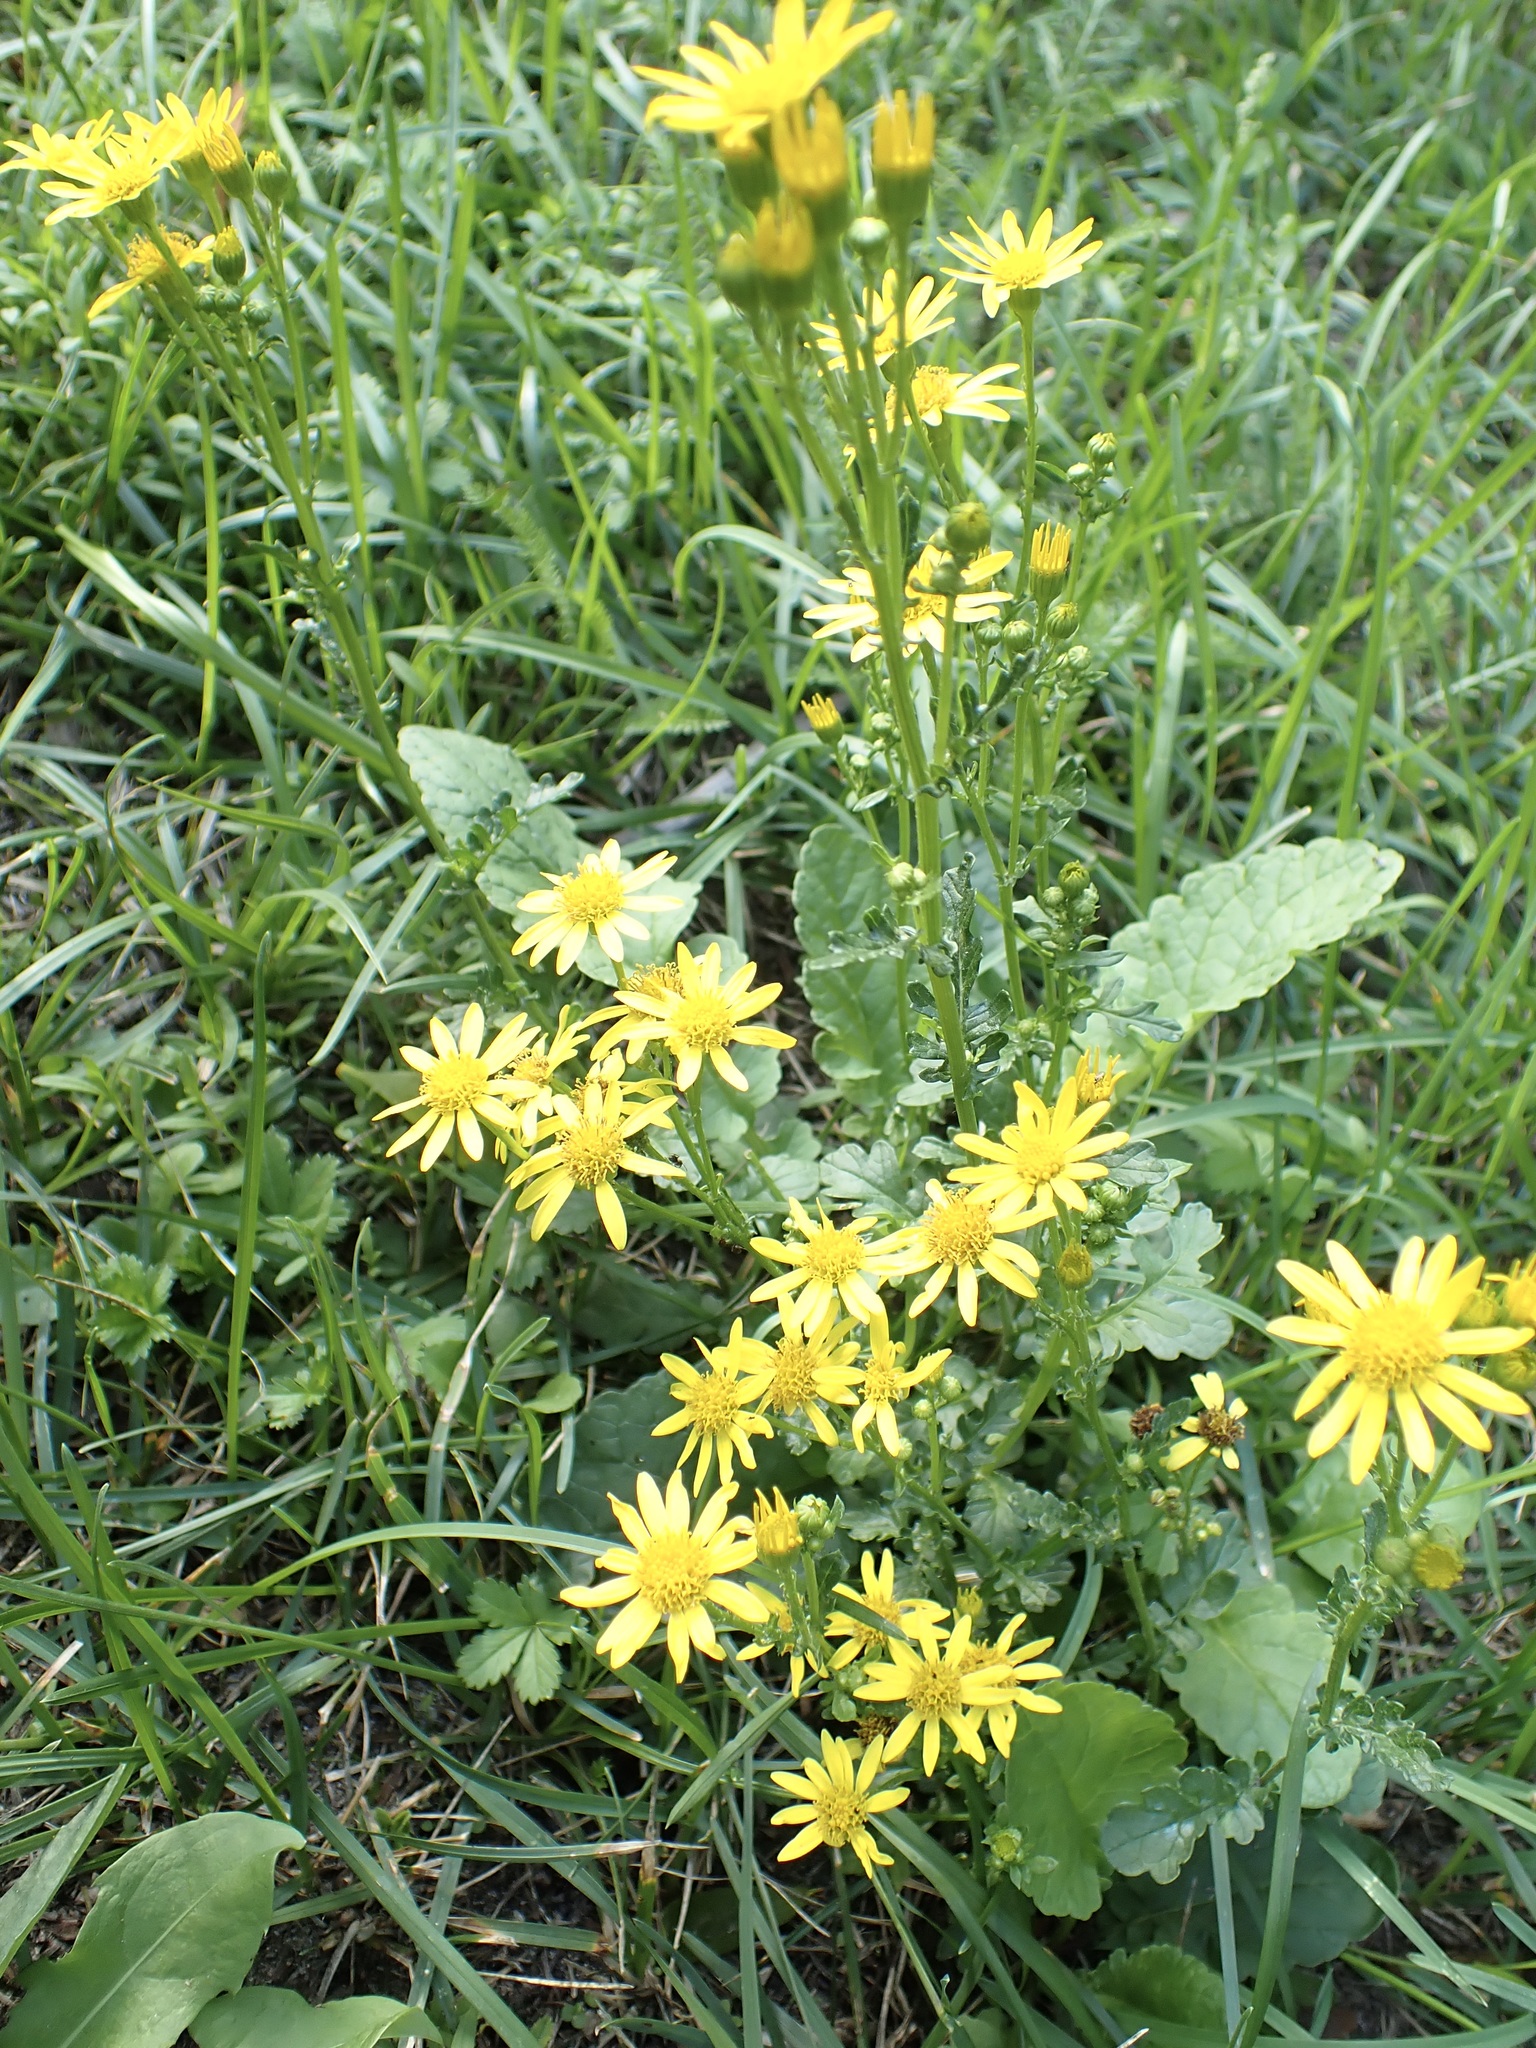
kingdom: Plantae
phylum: Tracheophyta
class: Magnoliopsida
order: Asterales
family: Asteraceae
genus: Jacobaea
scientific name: Jacobaea aquatica
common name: Water ragwort
